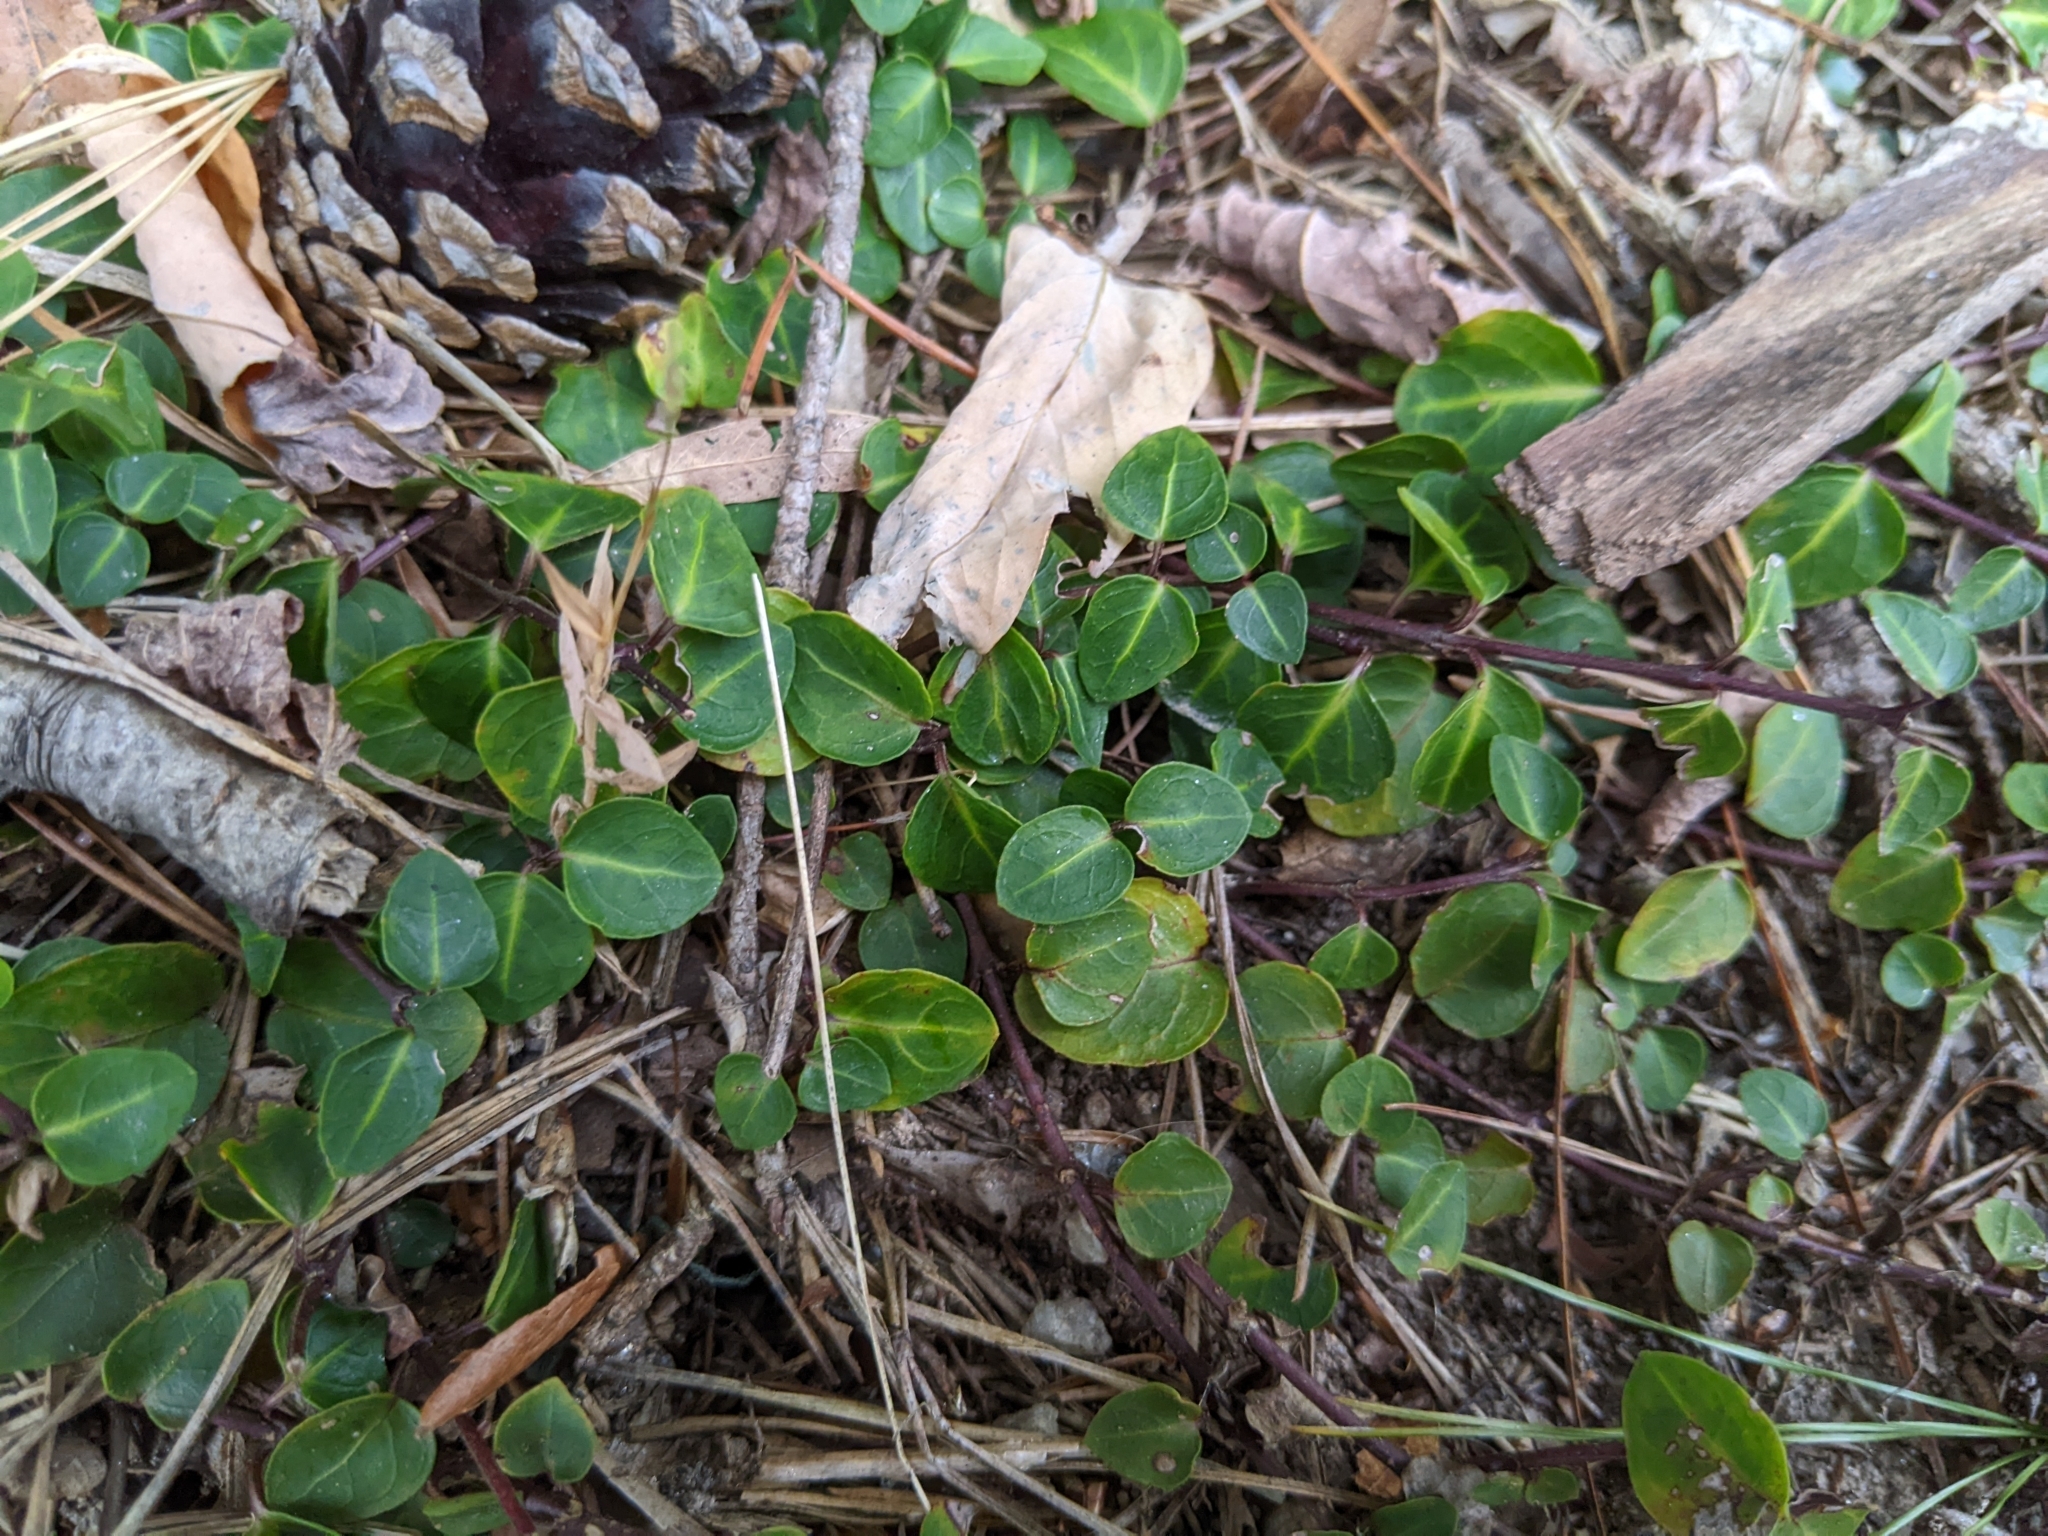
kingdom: Plantae
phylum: Tracheophyta
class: Magnoliopsida
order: Gentianales
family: Rubiaceae
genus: Mitchella
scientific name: Mitchella repens
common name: Partridge-berry
